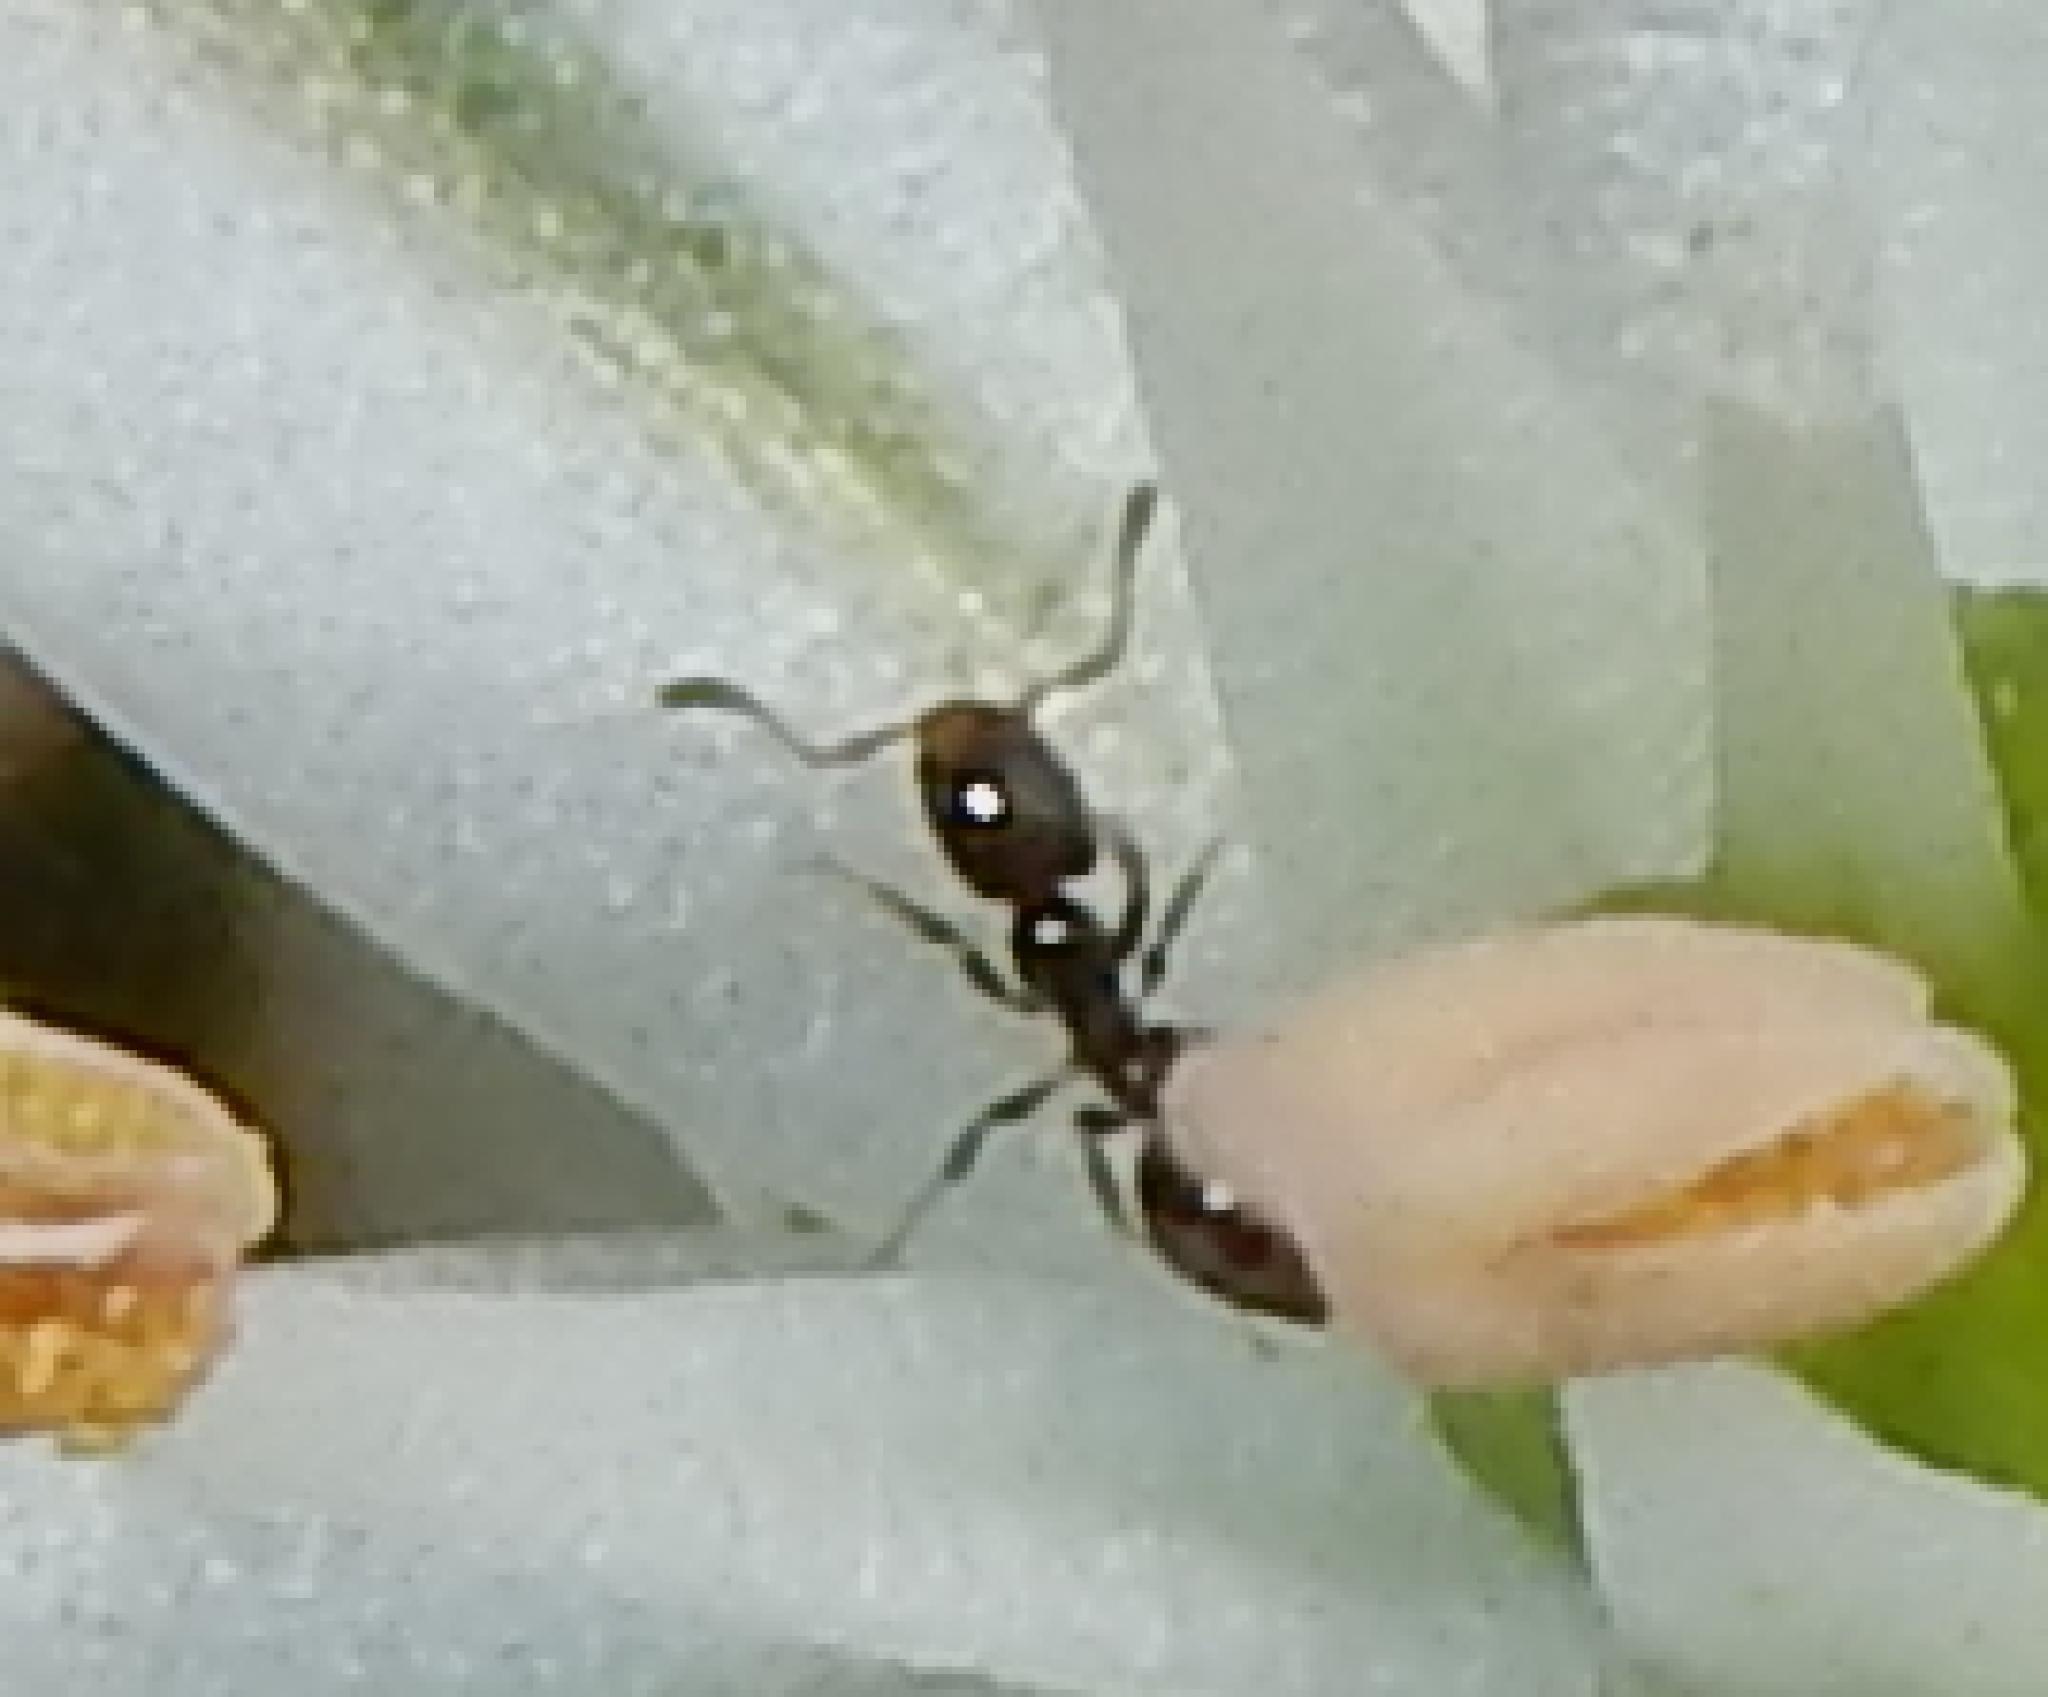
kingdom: Animalia
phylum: Arthropoda
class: Insecta
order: Hymenoptera
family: Formicidae
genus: Tetraponera
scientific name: Tetraponera clypeata
